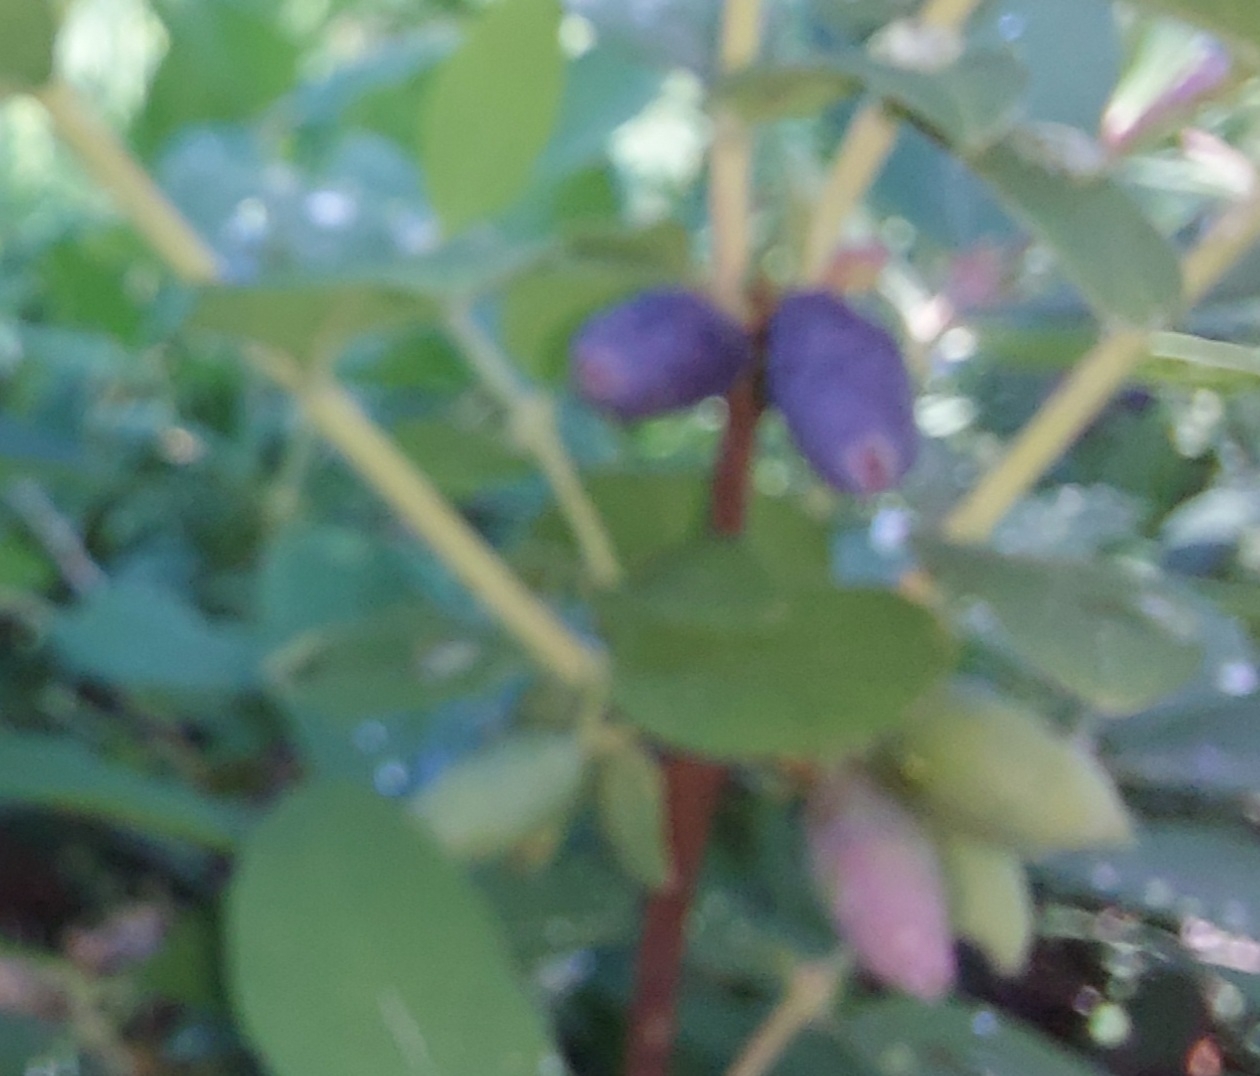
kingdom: Plantae
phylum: Tracheophyta
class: Magnoliopsida
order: Dipsacales
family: Caprifoliaceae
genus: Lonicera
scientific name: Lonicera caerulea
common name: Blue honeysuckle
